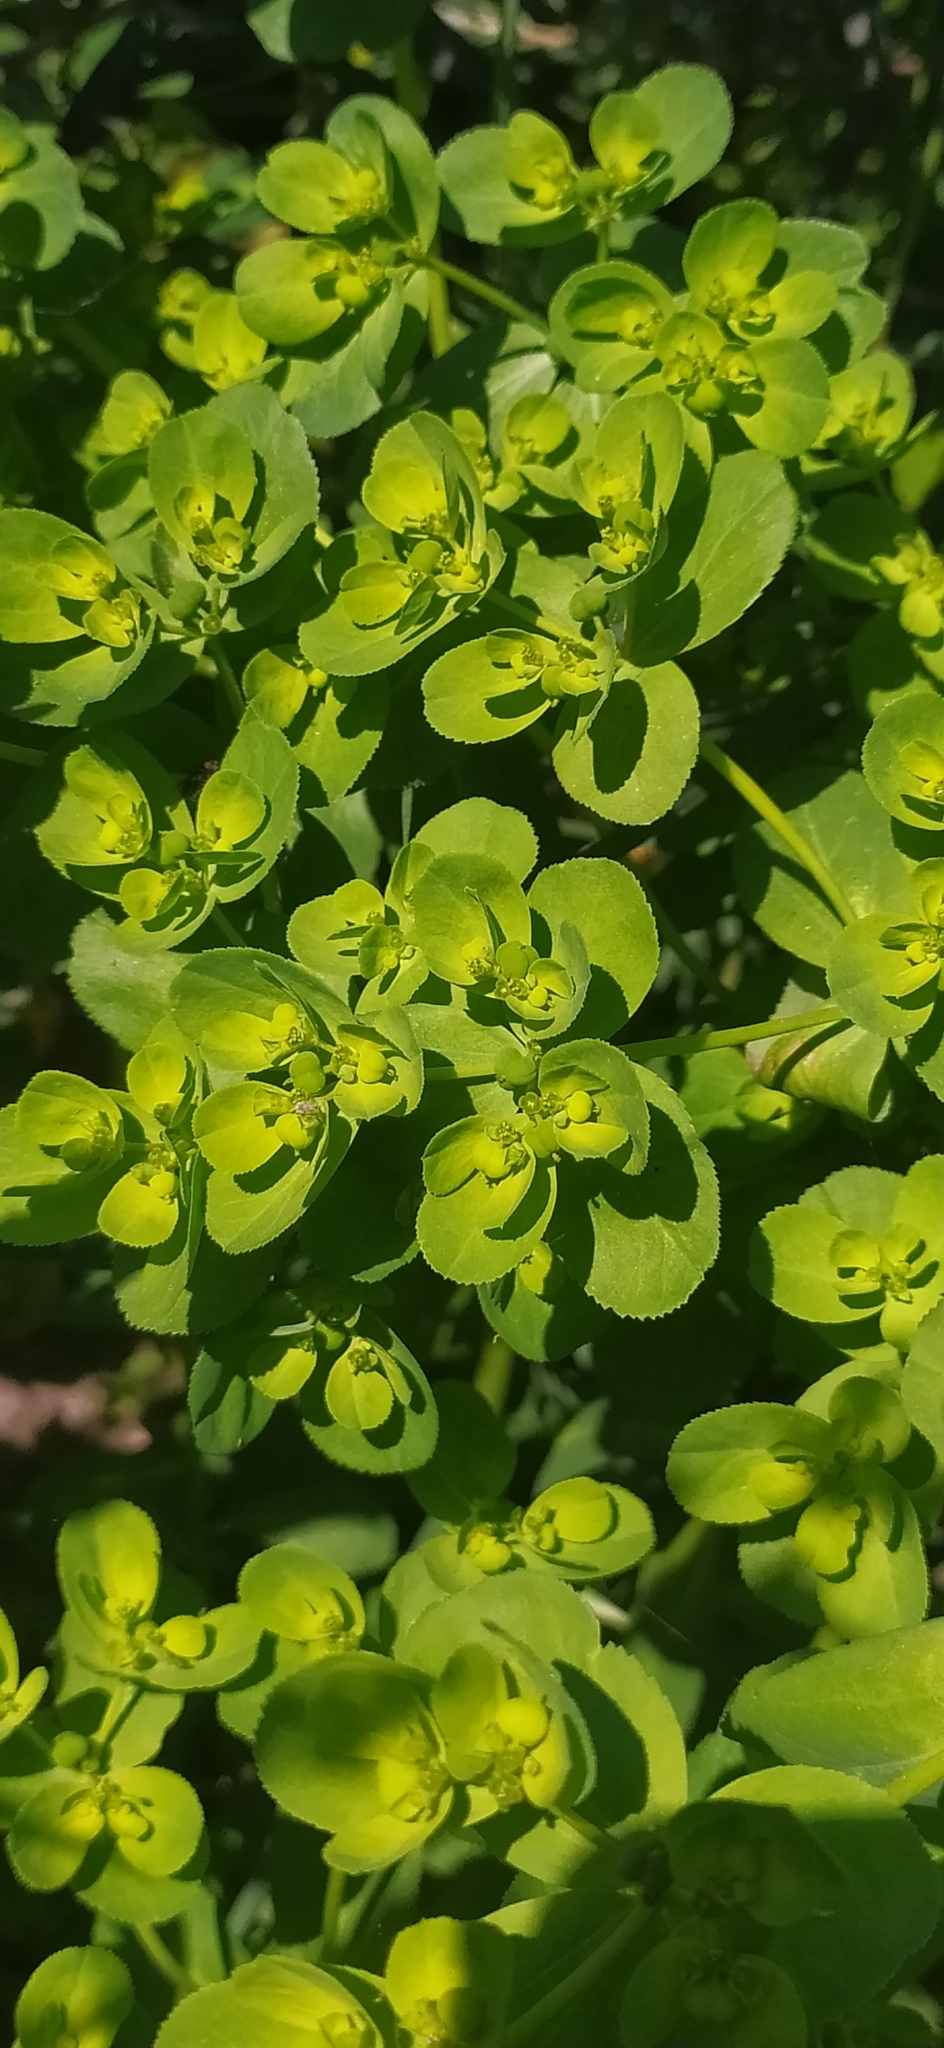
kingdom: Plantae
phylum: Tracheophyta
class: Magnoliopsida
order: Malpighiales
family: Euphorbiaceae
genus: Euphorbia
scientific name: Euphorbia helioscopia
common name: Sun spurge
